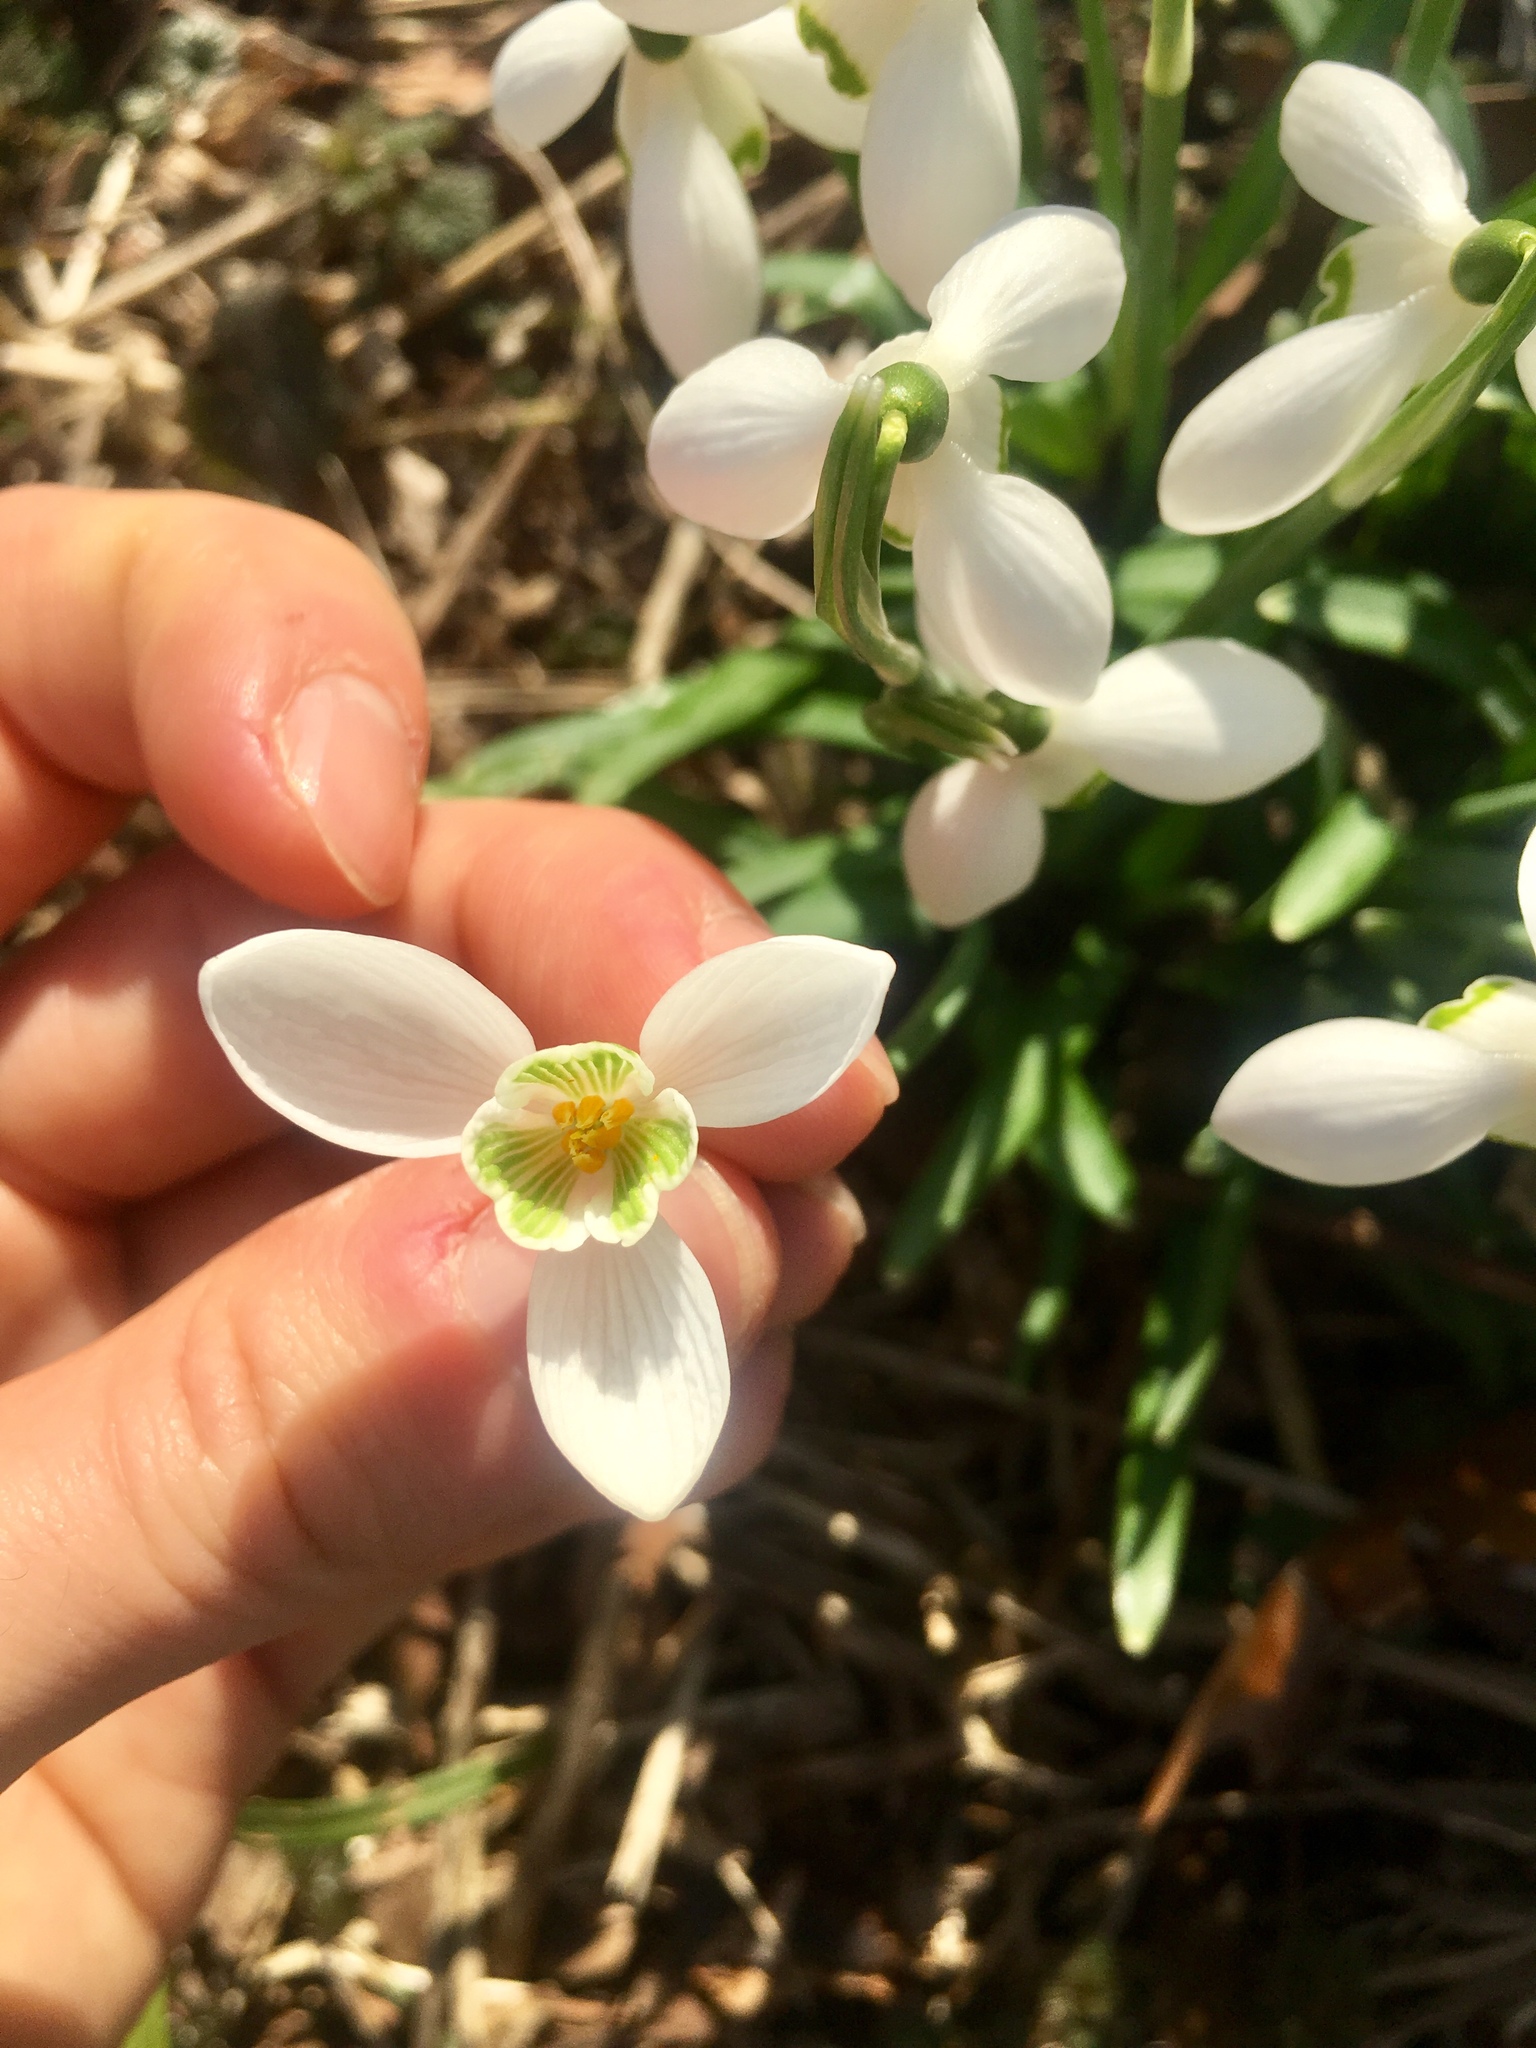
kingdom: Plantae
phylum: Tracheophyta
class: Liliopsida
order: Asparagales
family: Amaryllidaceae
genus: Galanthus
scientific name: Galanthus nivalis
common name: Snowdrop
